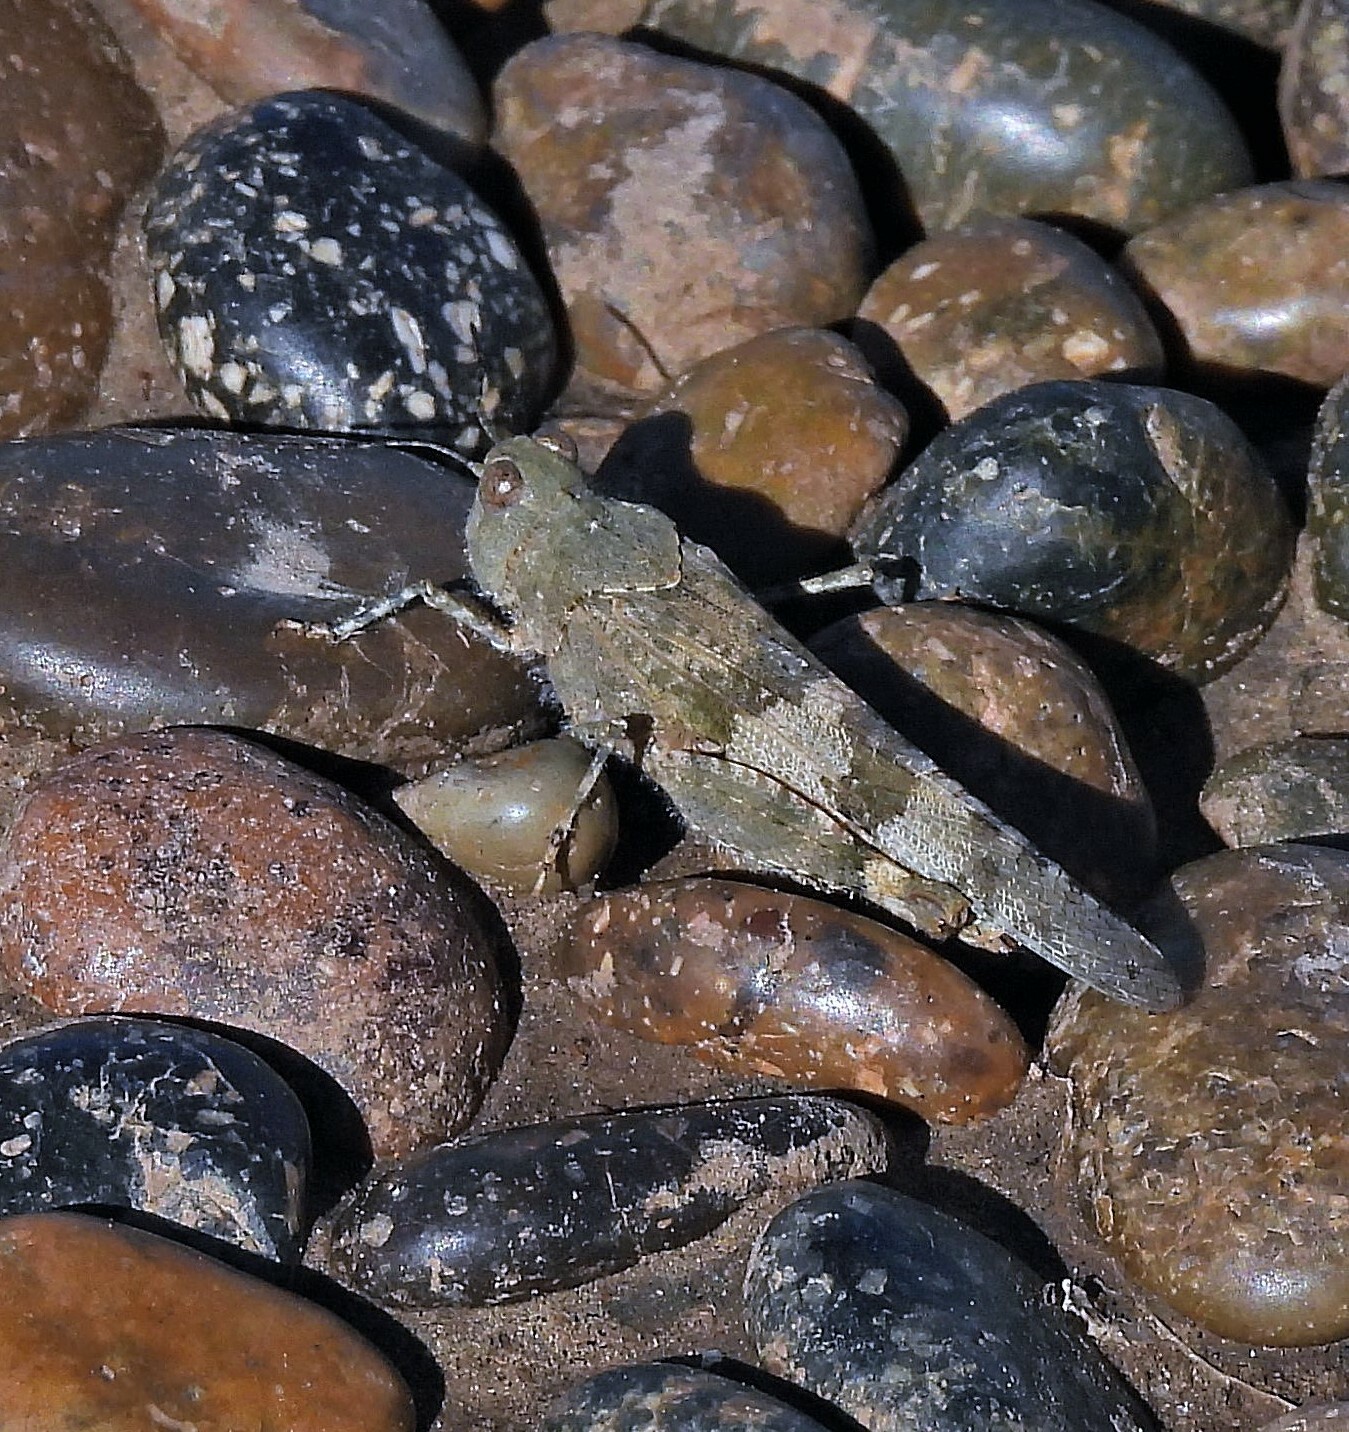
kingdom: Animalia
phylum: Arthropoda
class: Insecta
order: Orthoptera
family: Acrididae
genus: Trimerotropis
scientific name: Trimerotropis pallidipennis
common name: Pallid-winged grasshopper
